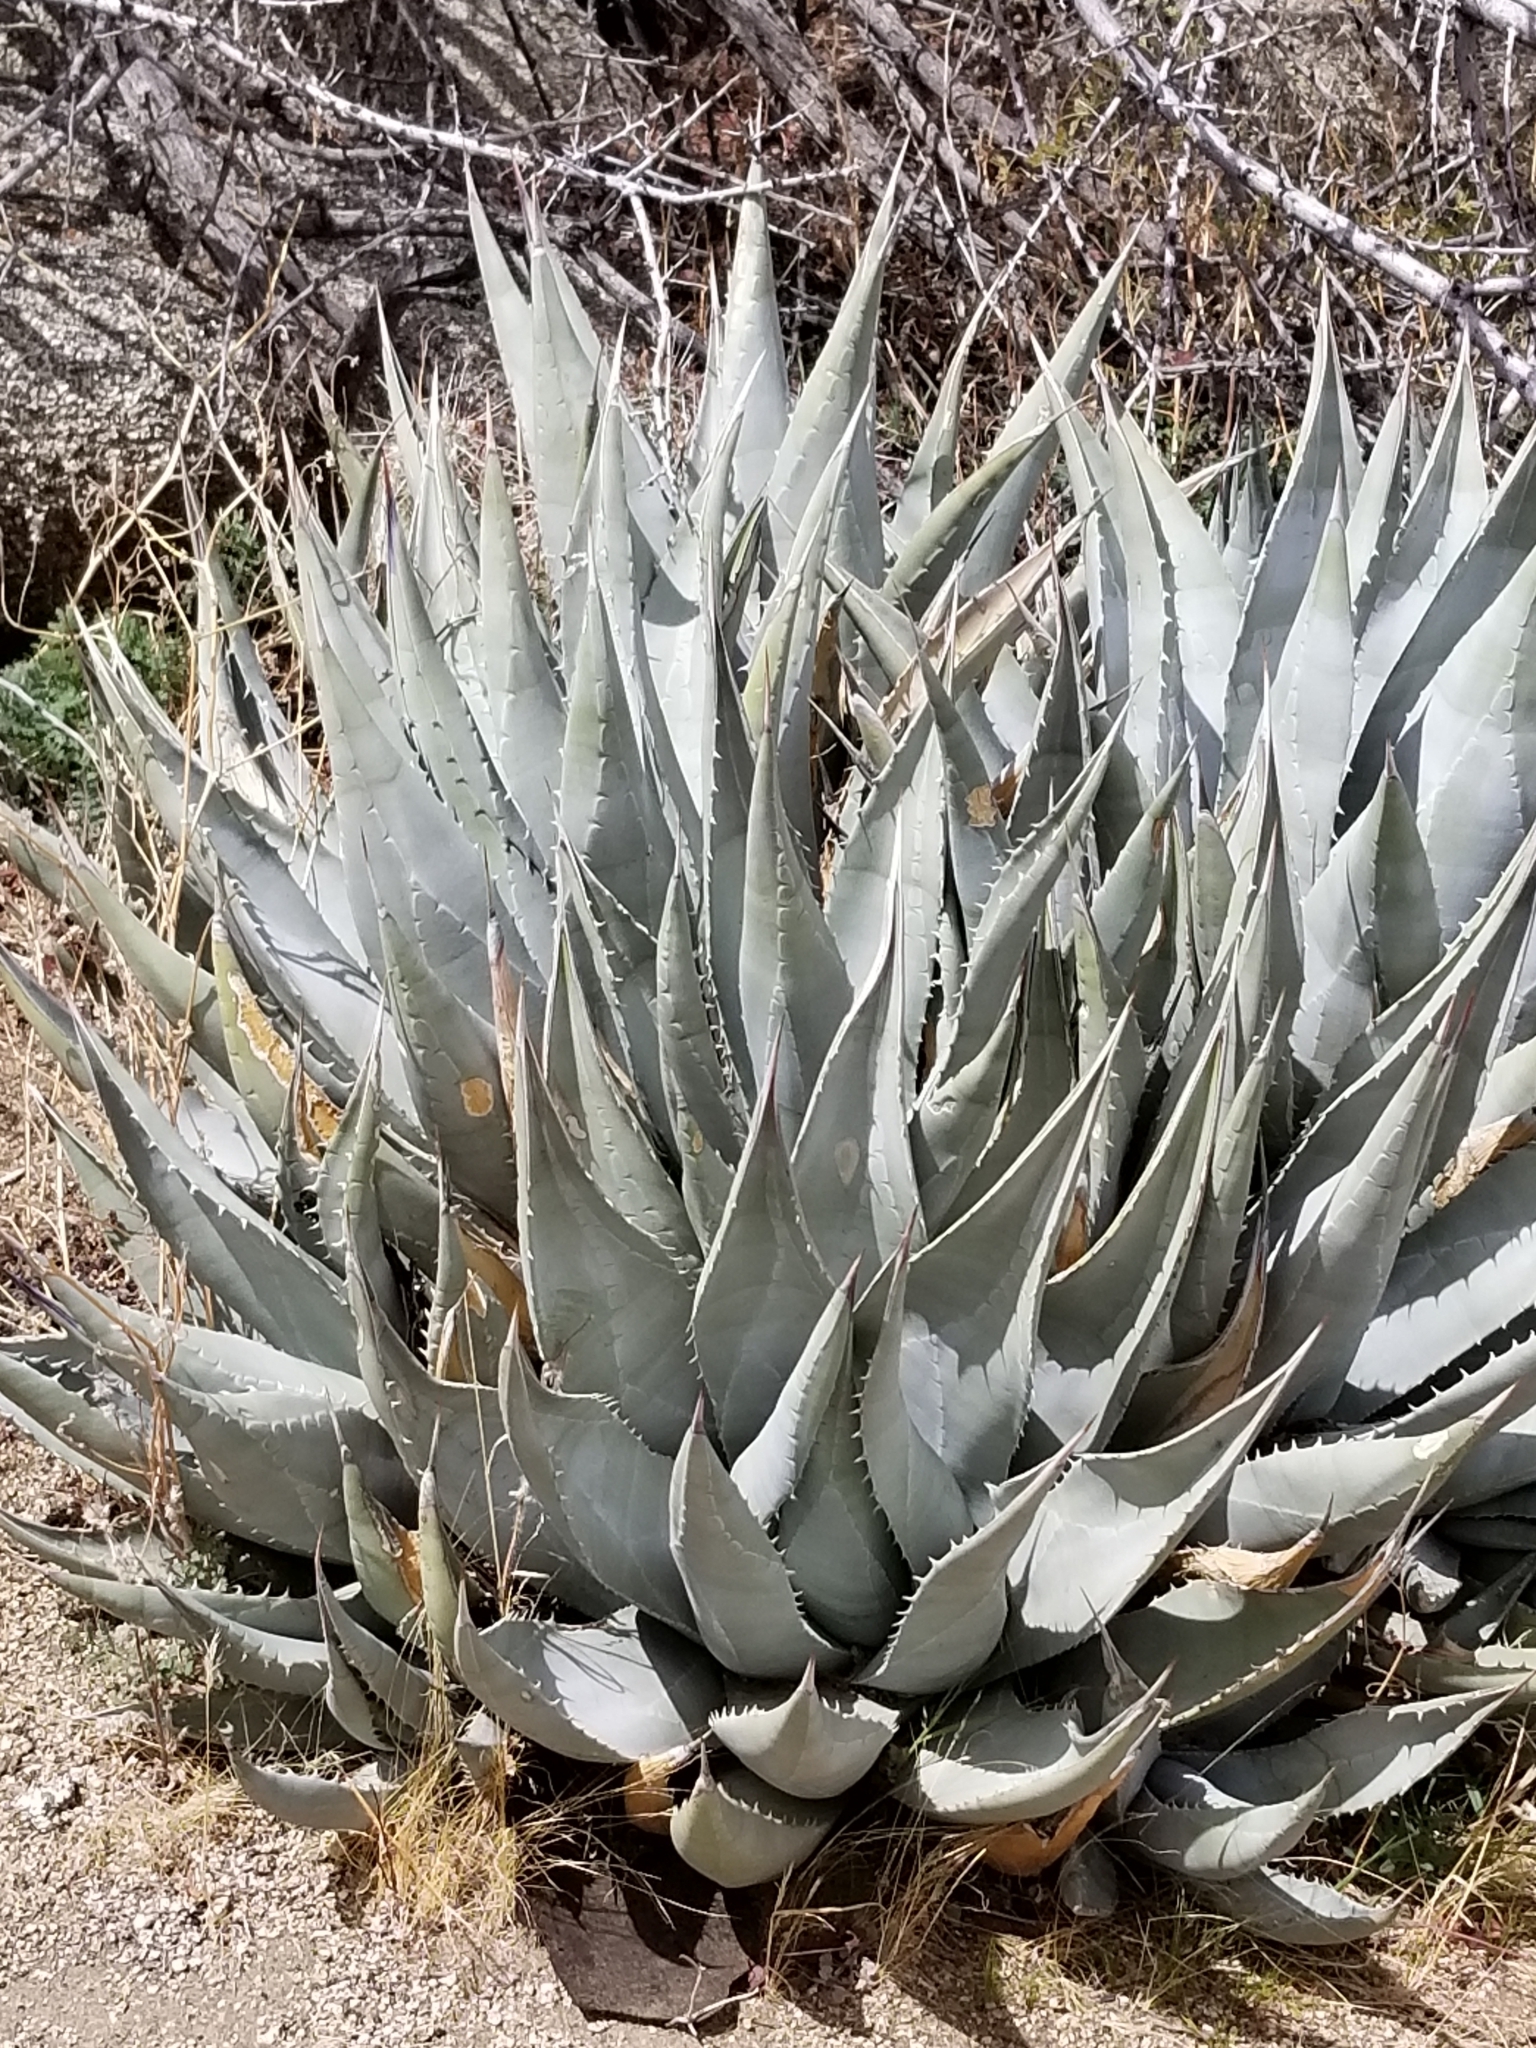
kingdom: Plantae
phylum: Tracheophyta
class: Liliopsida
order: Asparagales
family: Asparagaceae
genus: Agave
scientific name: Agave deserti
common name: Desert agave
